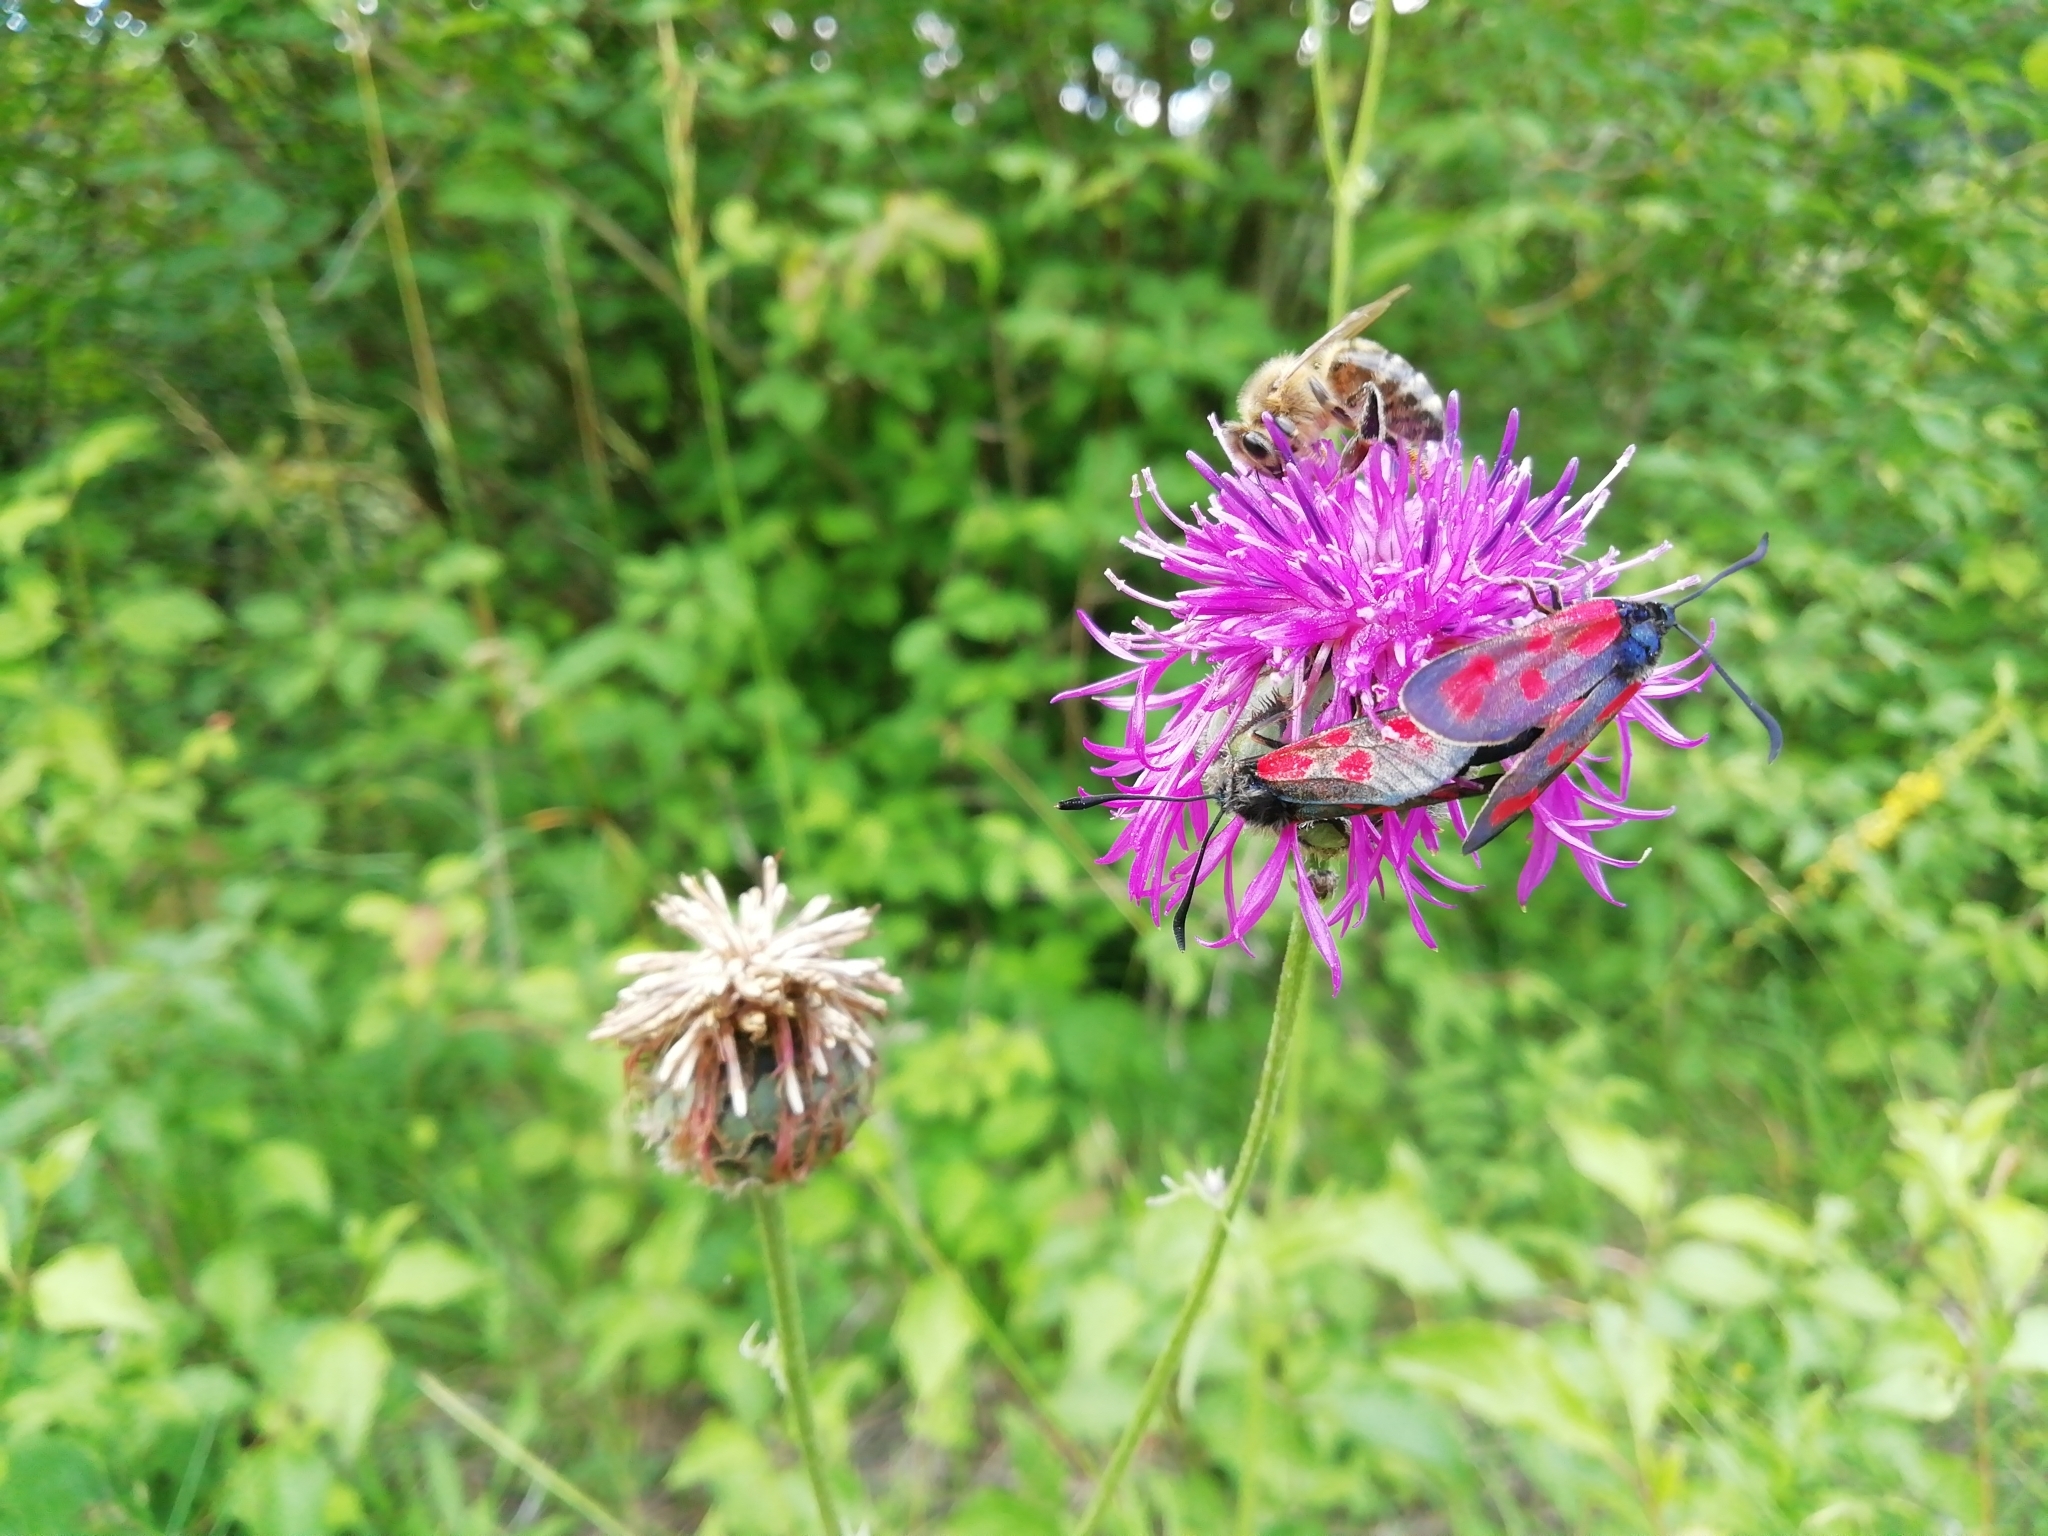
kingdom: Animalia
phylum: Arthropoda
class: Insecta
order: Lepidoptera
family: Zygaenidae
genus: Zygaena
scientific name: Zygaena loti
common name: Slender scotch burnet
